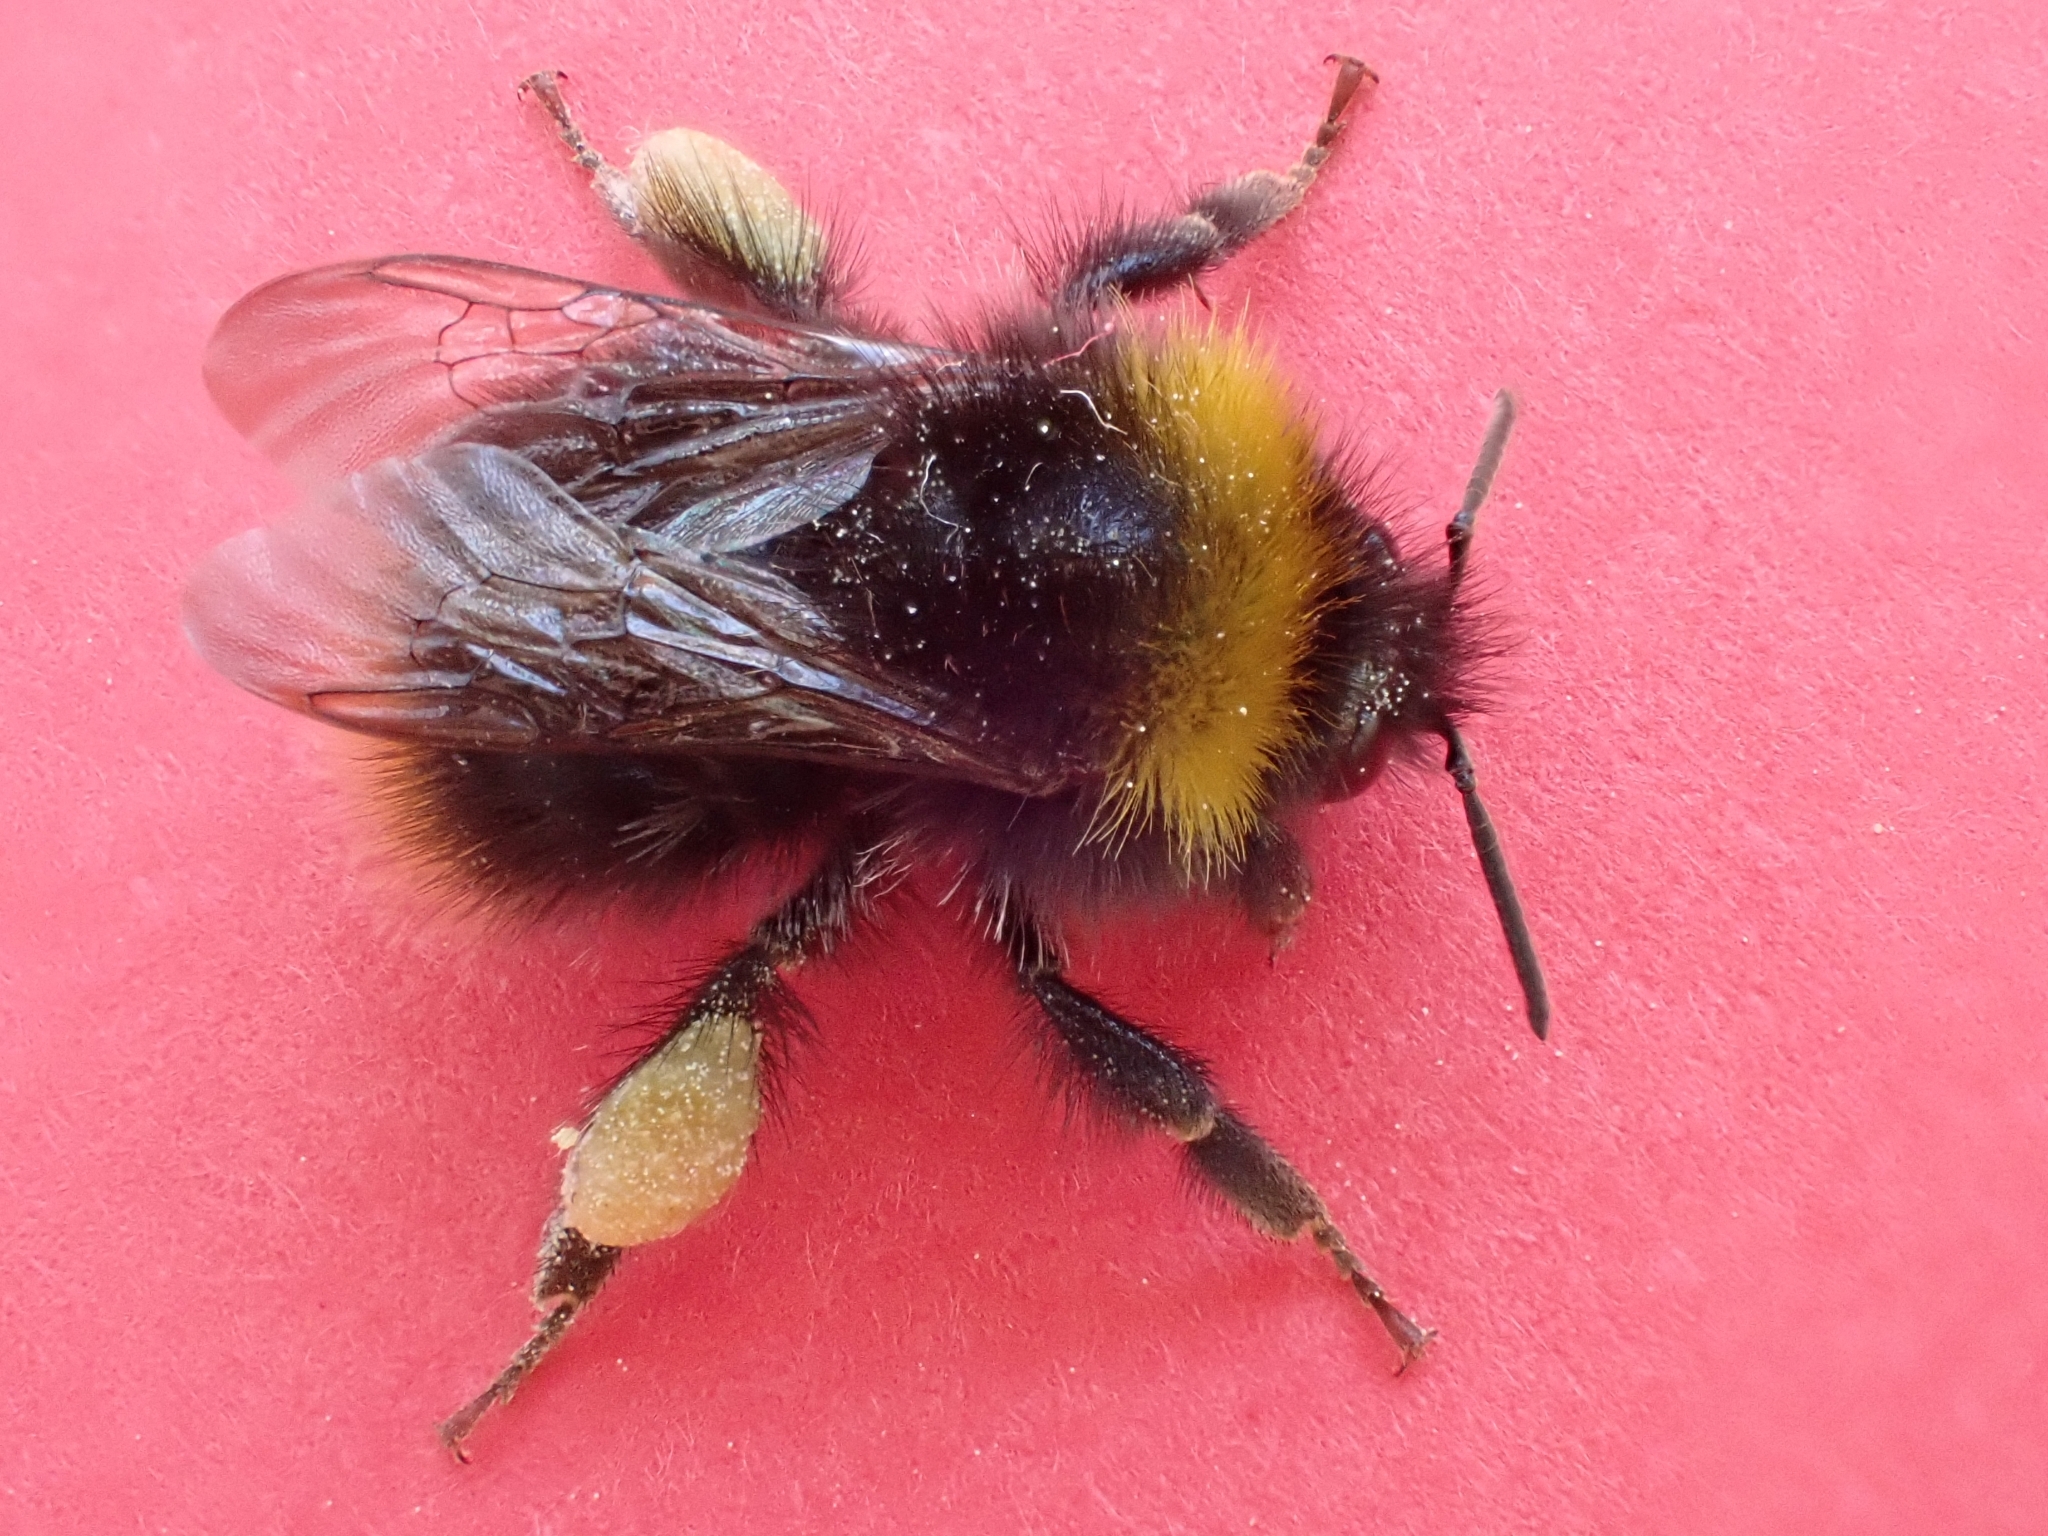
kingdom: Animalia
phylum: Arthropoda
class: Insecta
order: Hymenoptera
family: Apidae
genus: Bombus
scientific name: Bombus pratorum
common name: Early humble-bee
